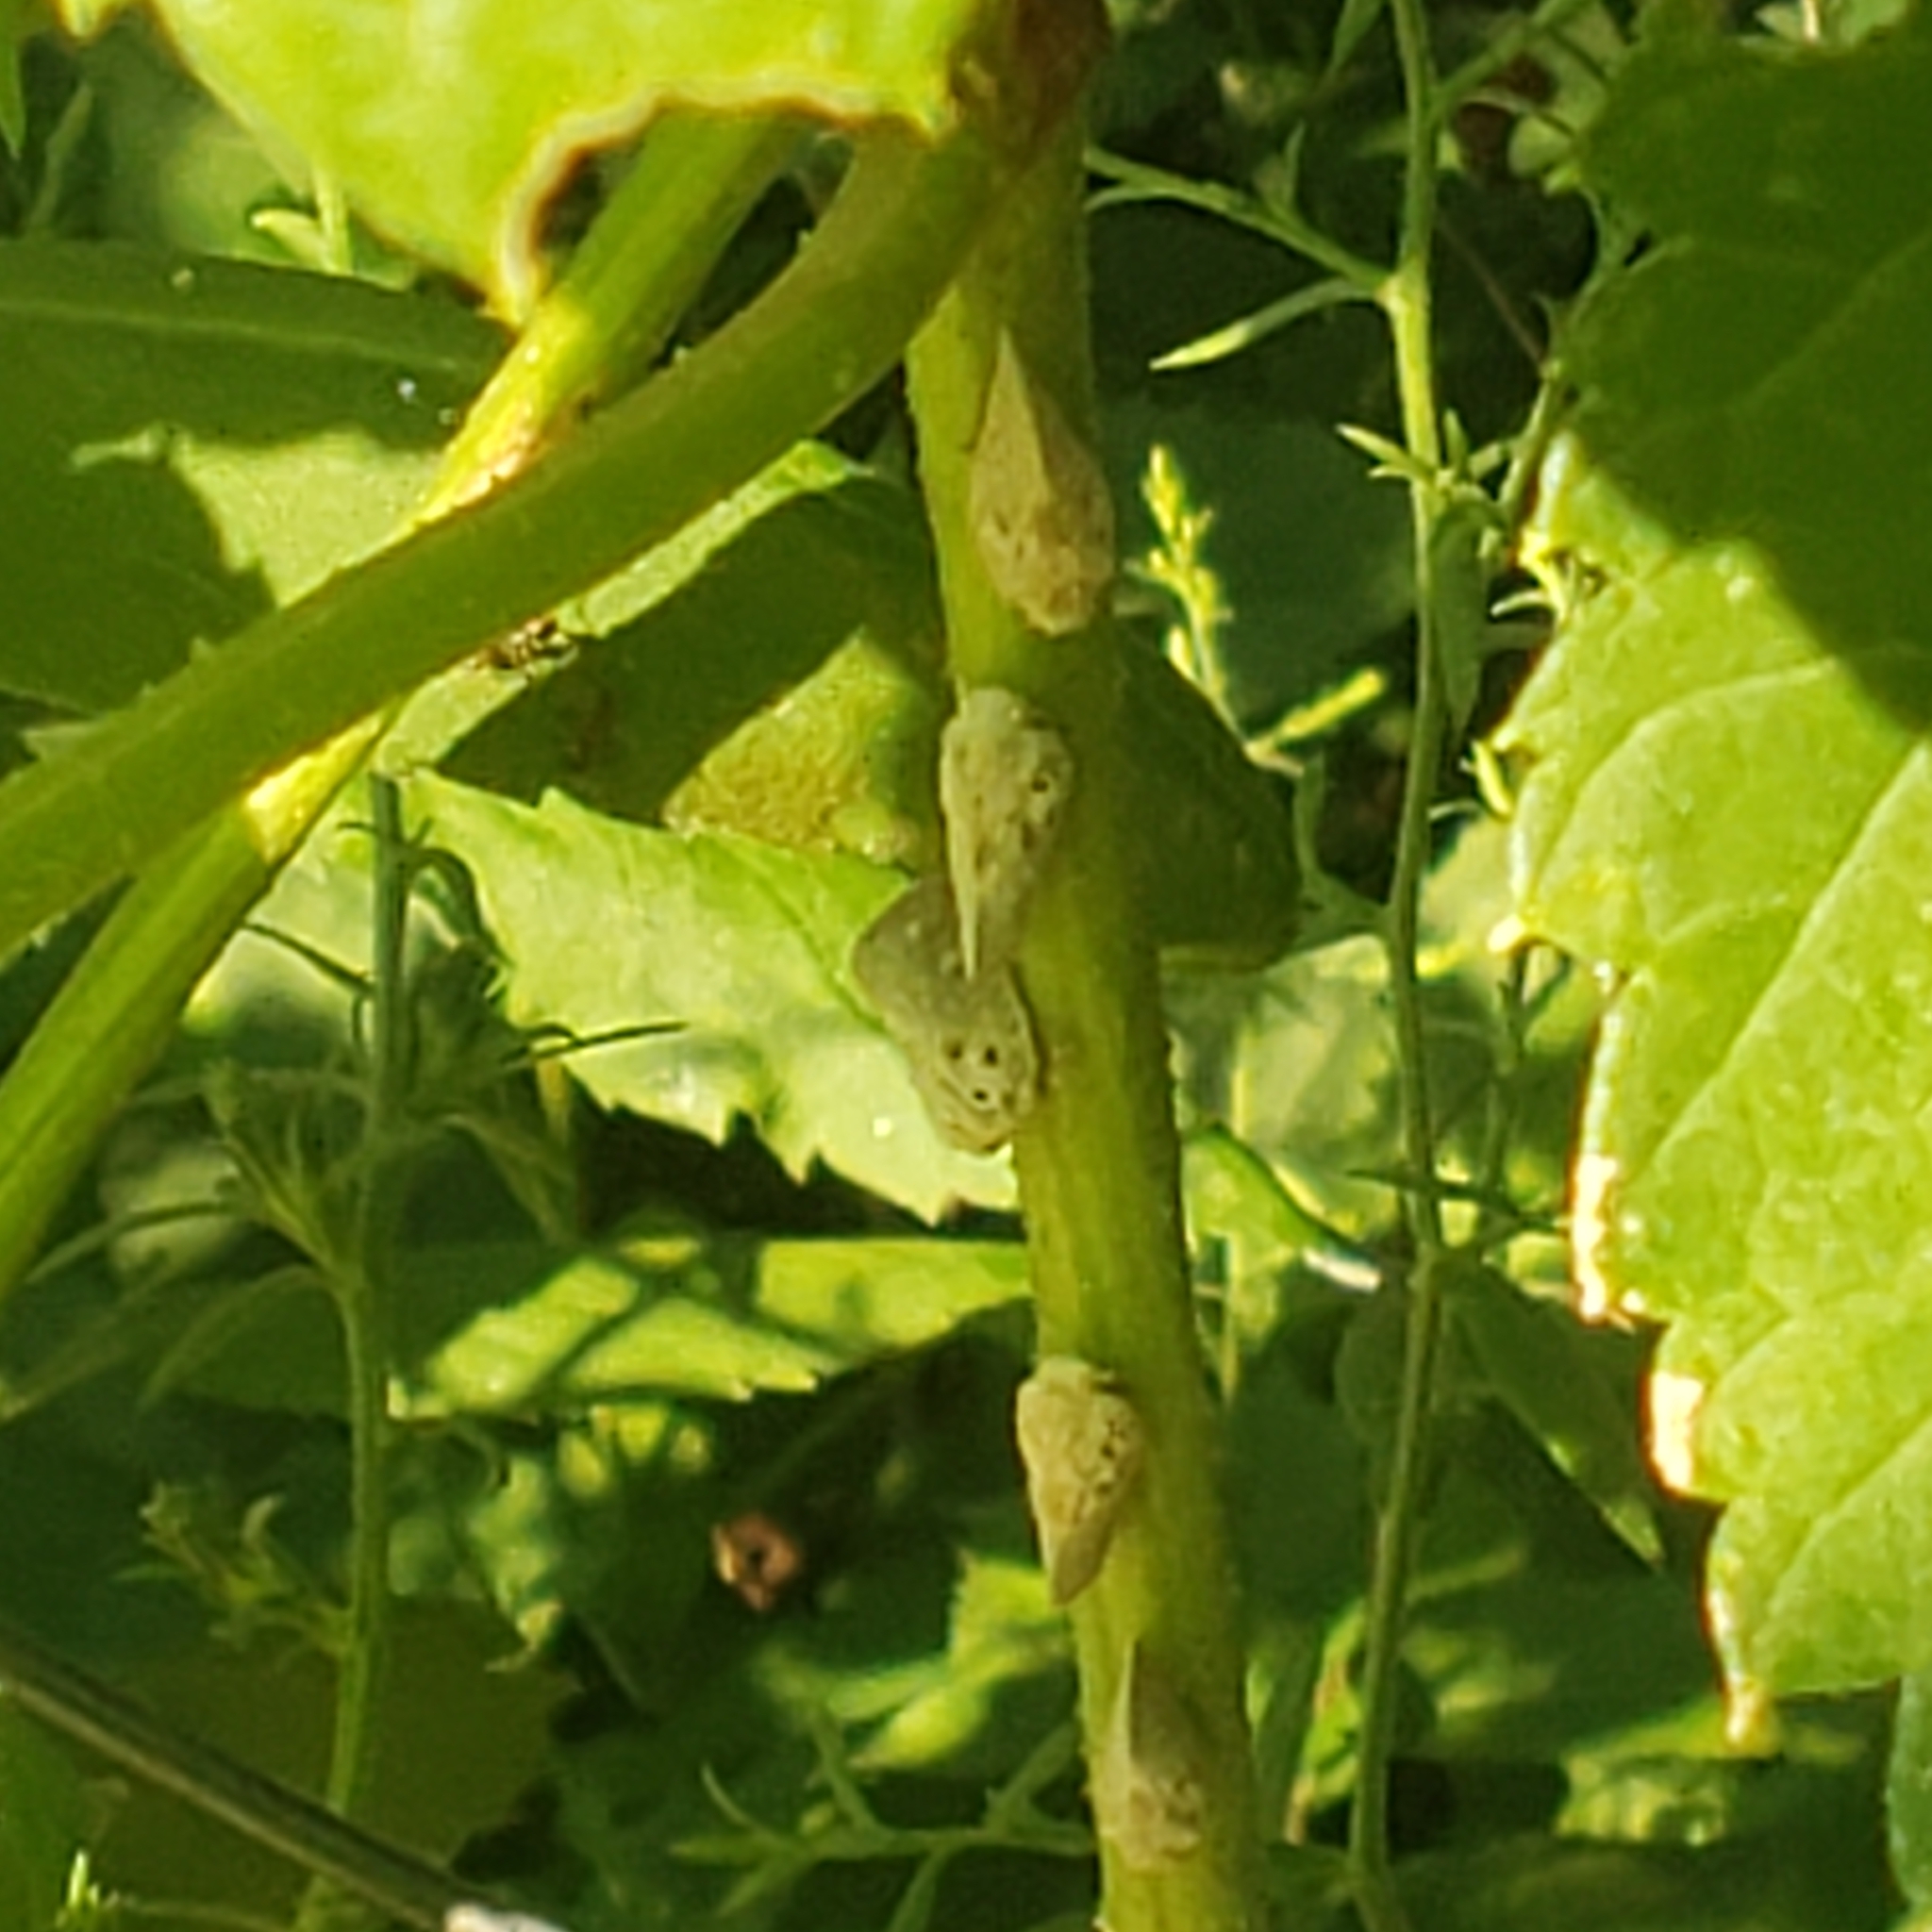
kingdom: Animalia
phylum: Arthropoda
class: Insecta
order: Hemiptera
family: Flatidae
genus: Metcalfa
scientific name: Metcalfa pruinosa
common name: Citrus flatid planthopper
